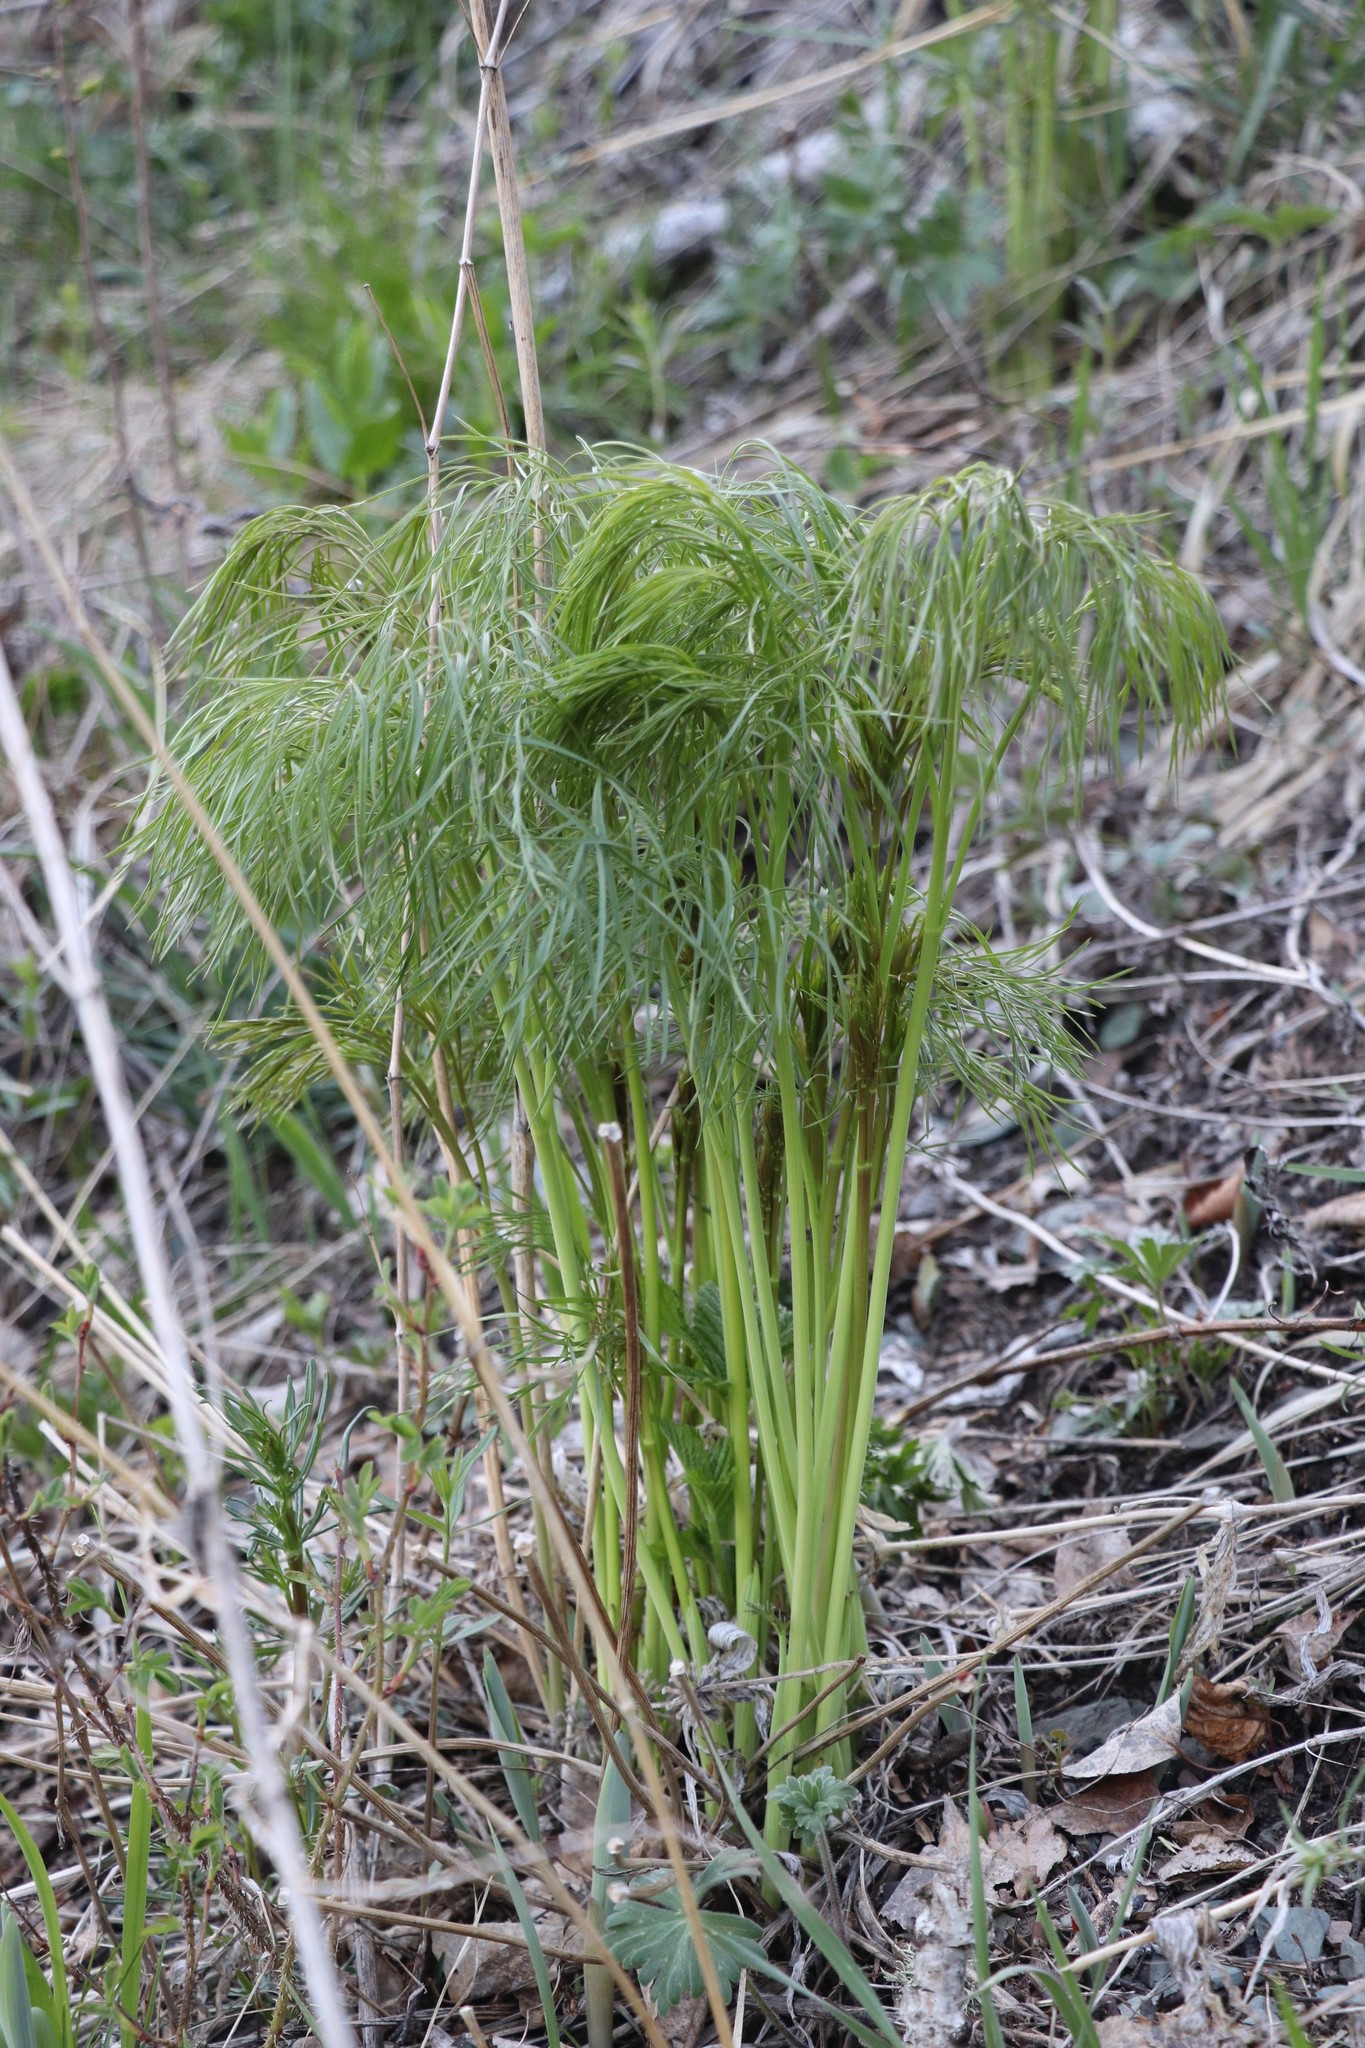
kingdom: Plantae
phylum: Tracheophyta
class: Magnoliopsida
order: Apiales
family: Apiaceae
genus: Peucedanum
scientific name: Peucedanum morisonii
